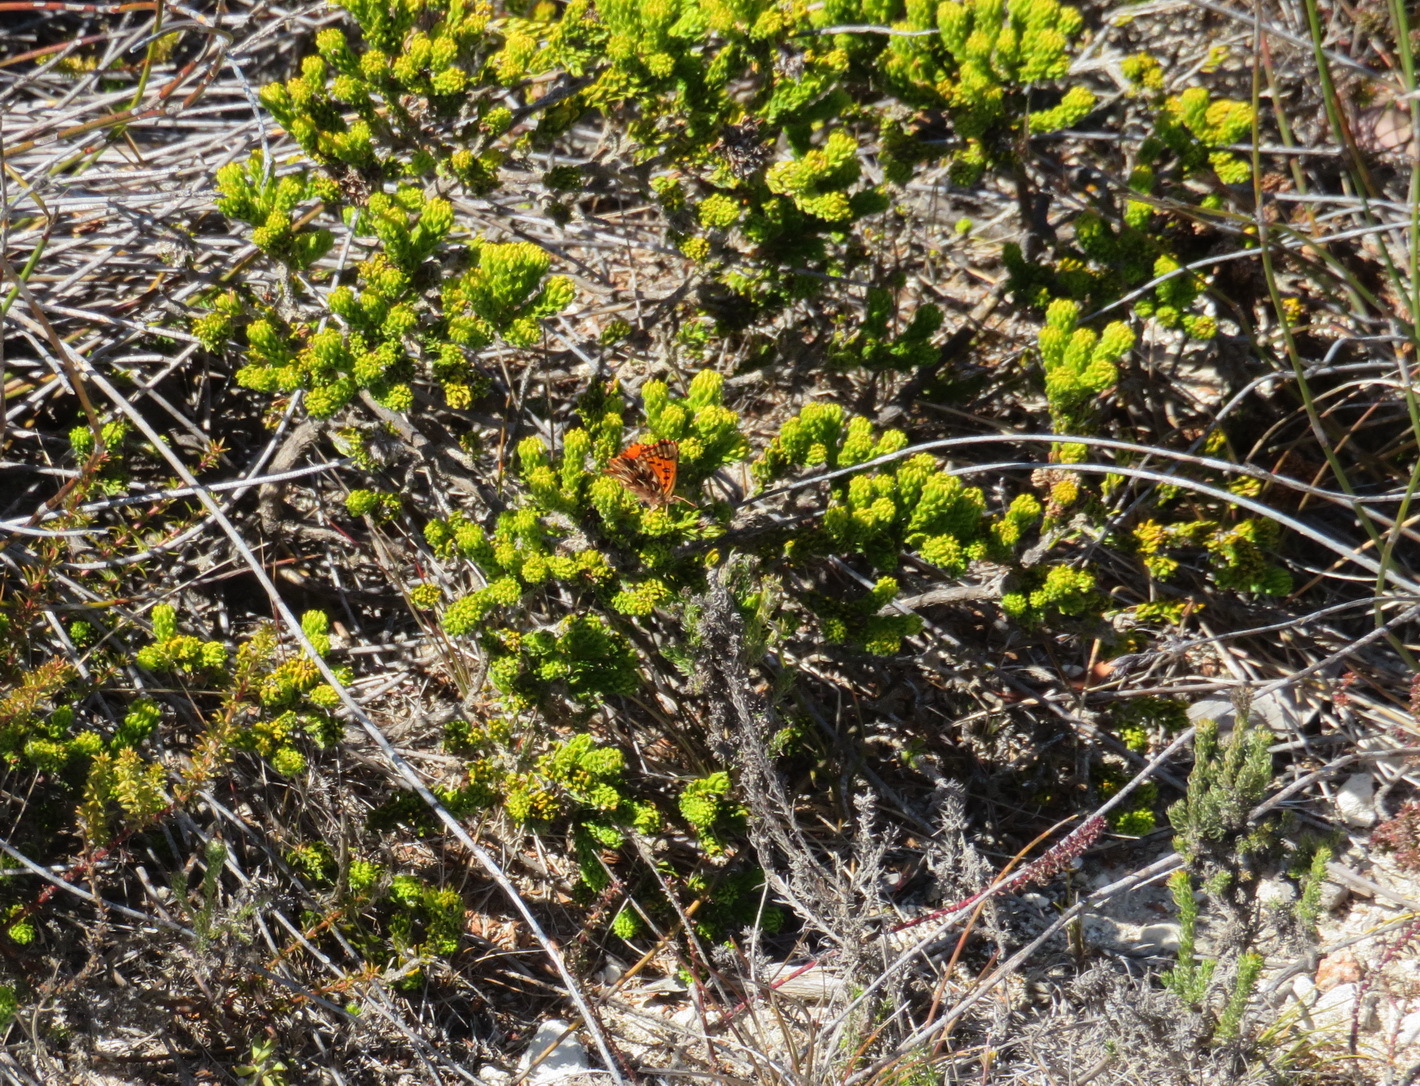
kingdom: Plantae
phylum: Tracheophyta
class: Magnoliopsida
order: Sapindales
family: Rutaceae
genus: Agathosma
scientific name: Agathosma eriantha
